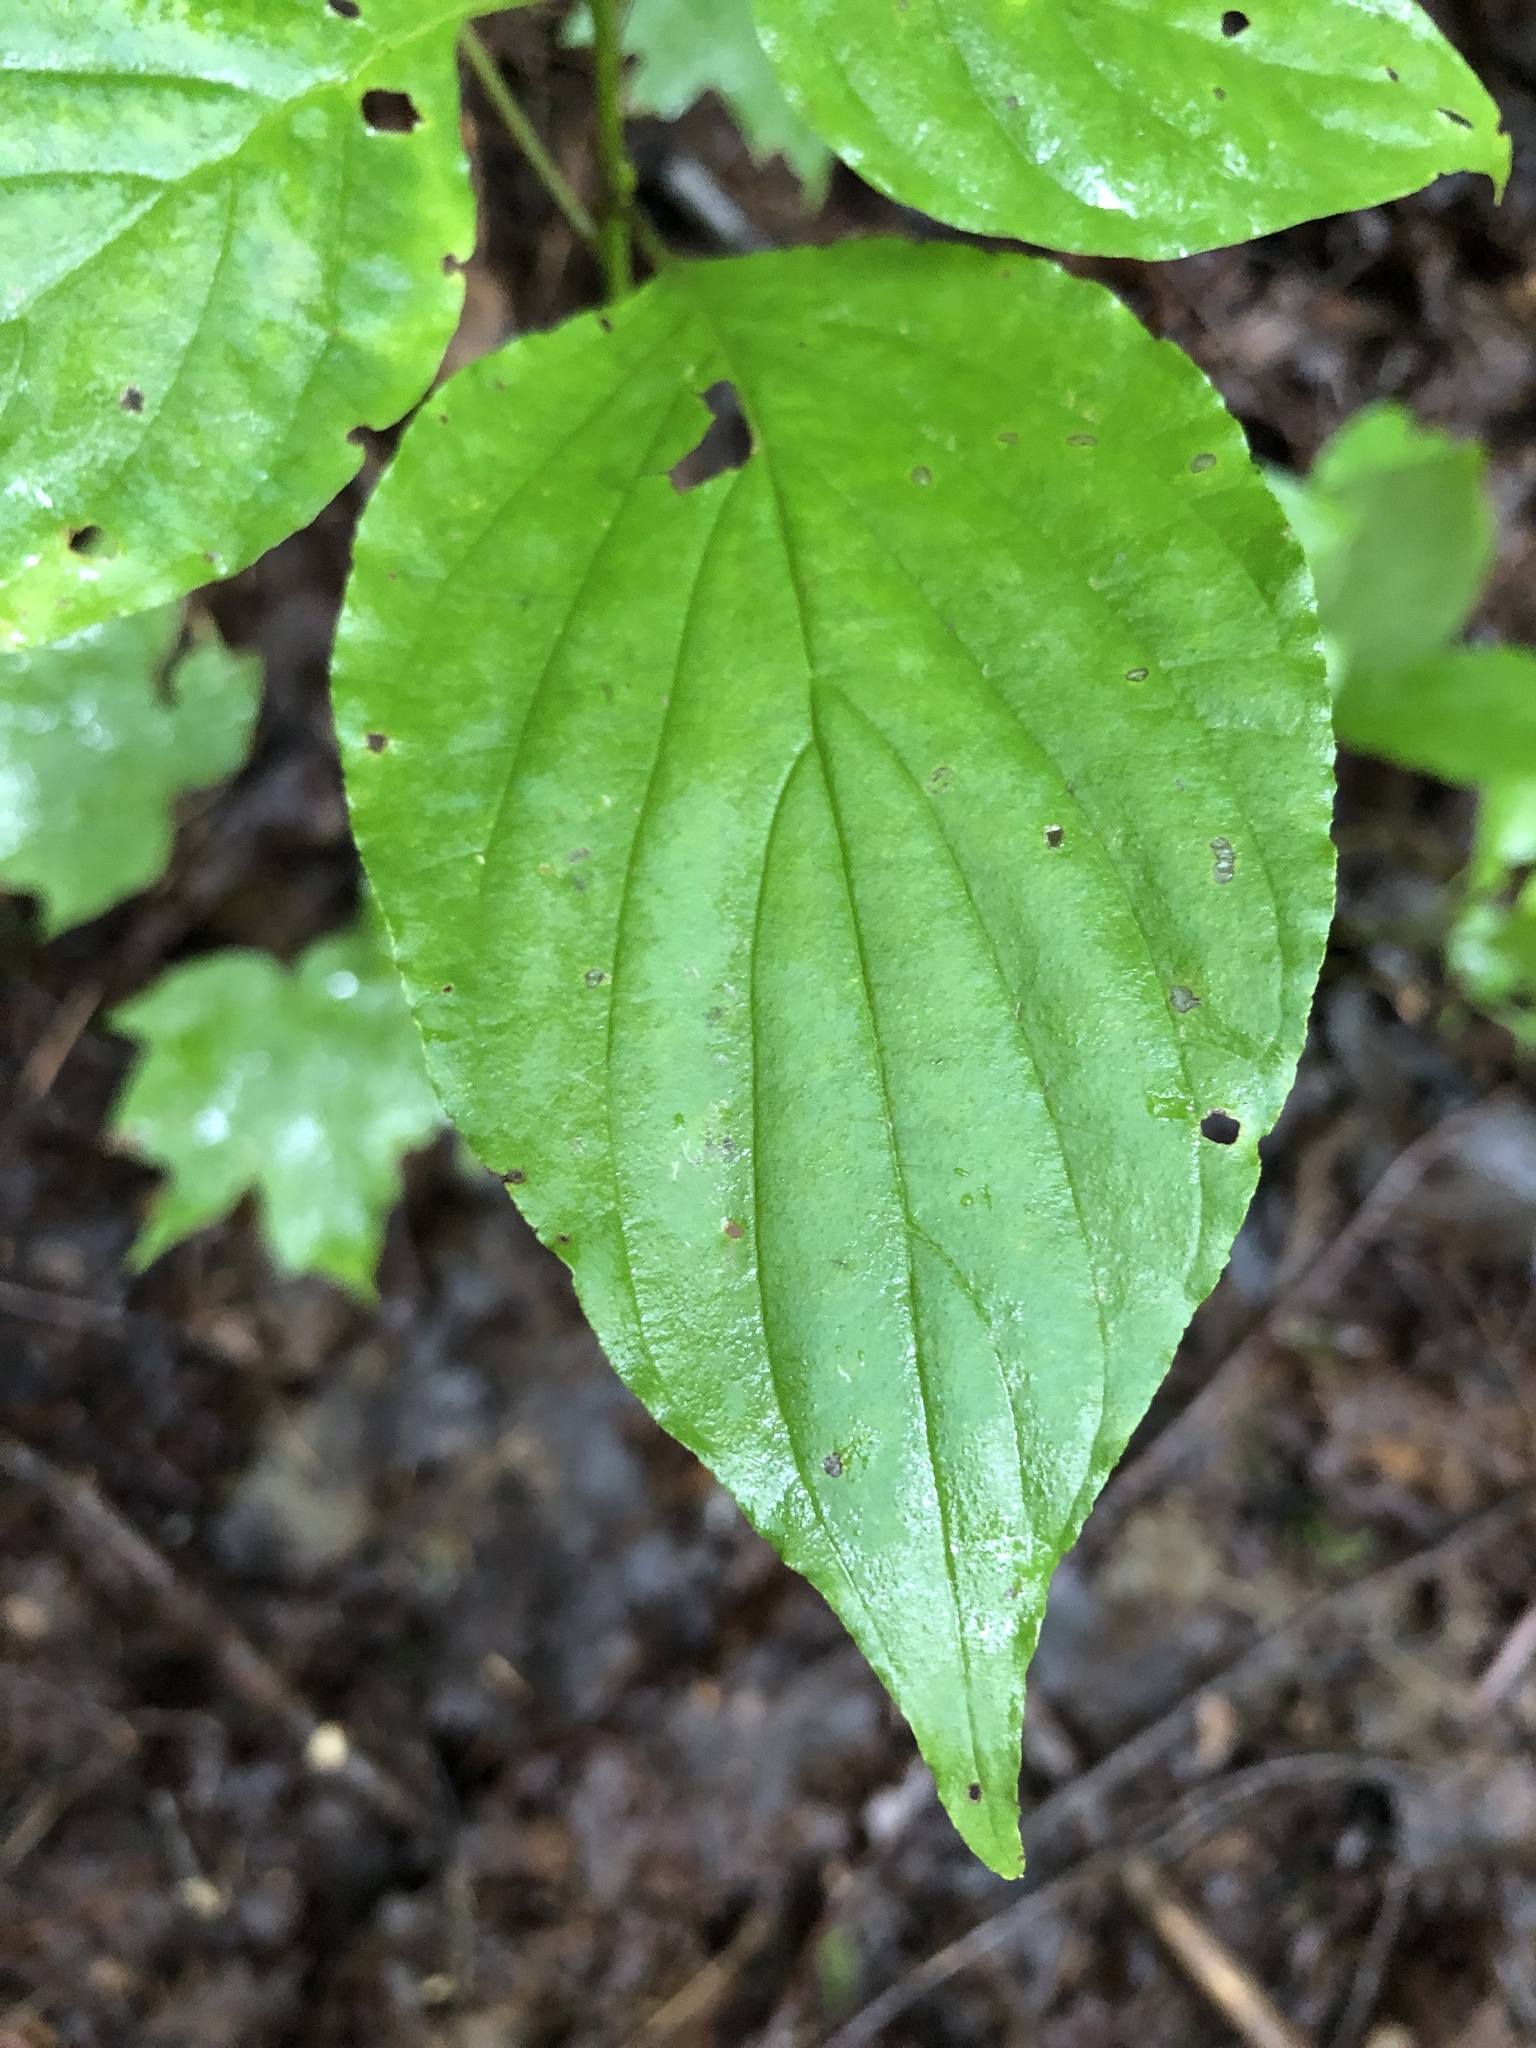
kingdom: Plantae
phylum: Tracheophyta
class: Magnoliopsida
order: Cornales
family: Cornaceae
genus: Cornus
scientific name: Cornus alternifolia
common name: Pagoda dogwood
